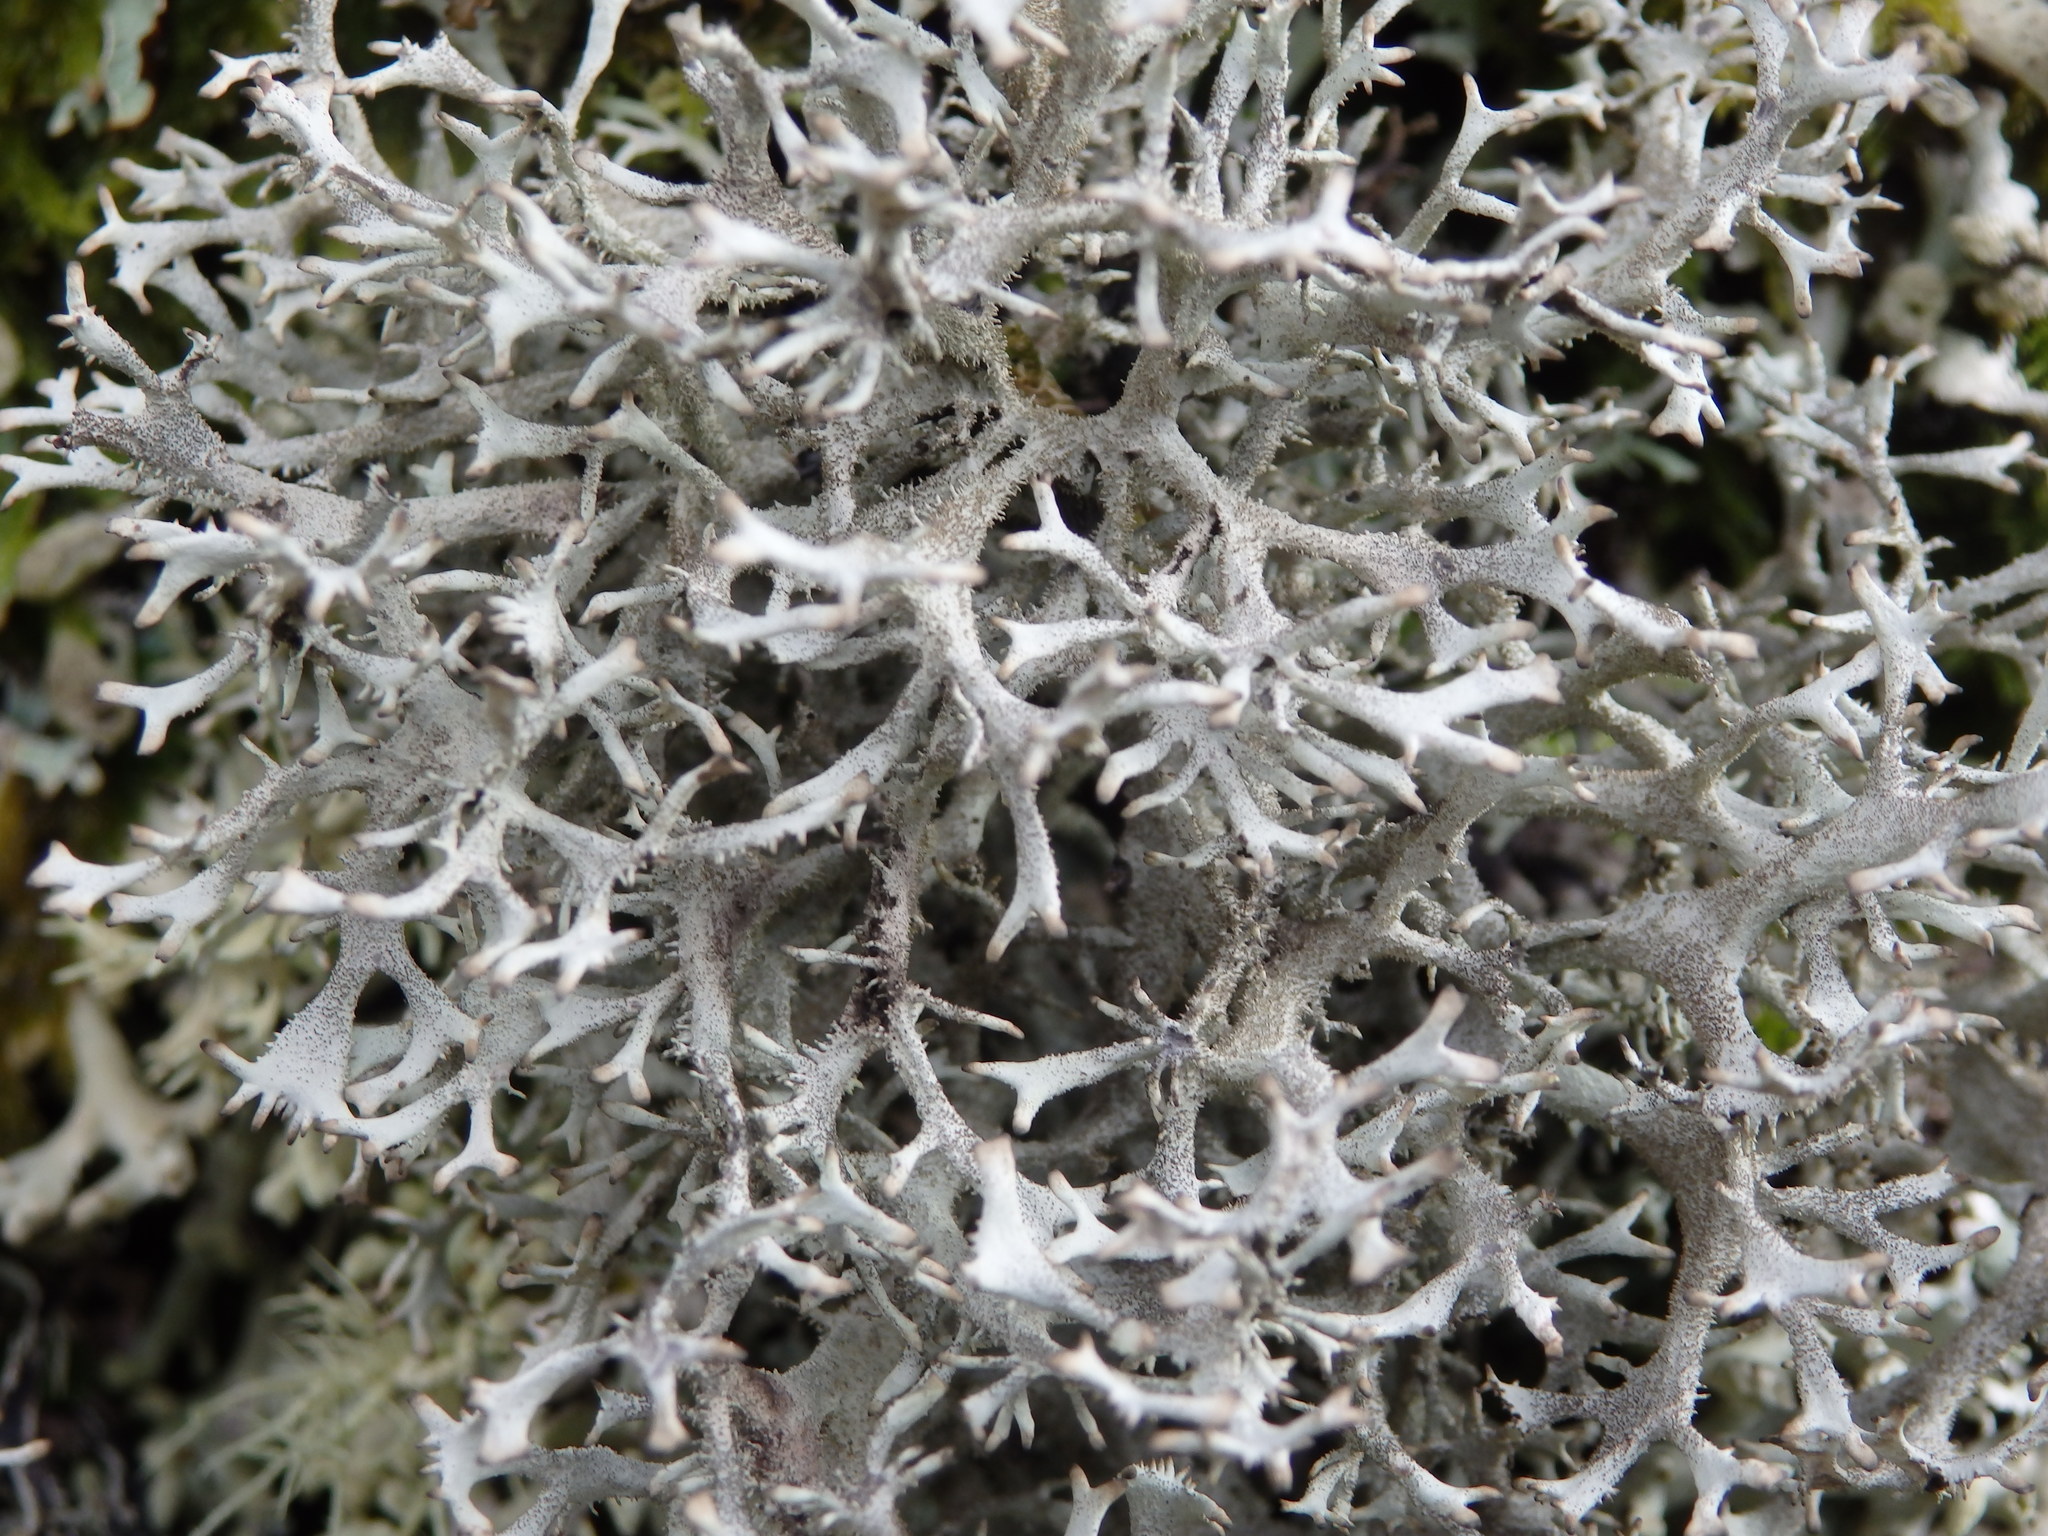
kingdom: Fungi
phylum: Ascomycota
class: Lecanoromycetes
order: Lecanorales
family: Parmeliaceae
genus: Pseudevernia
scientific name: Pseudevernia furfuracea
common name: Tree moss
